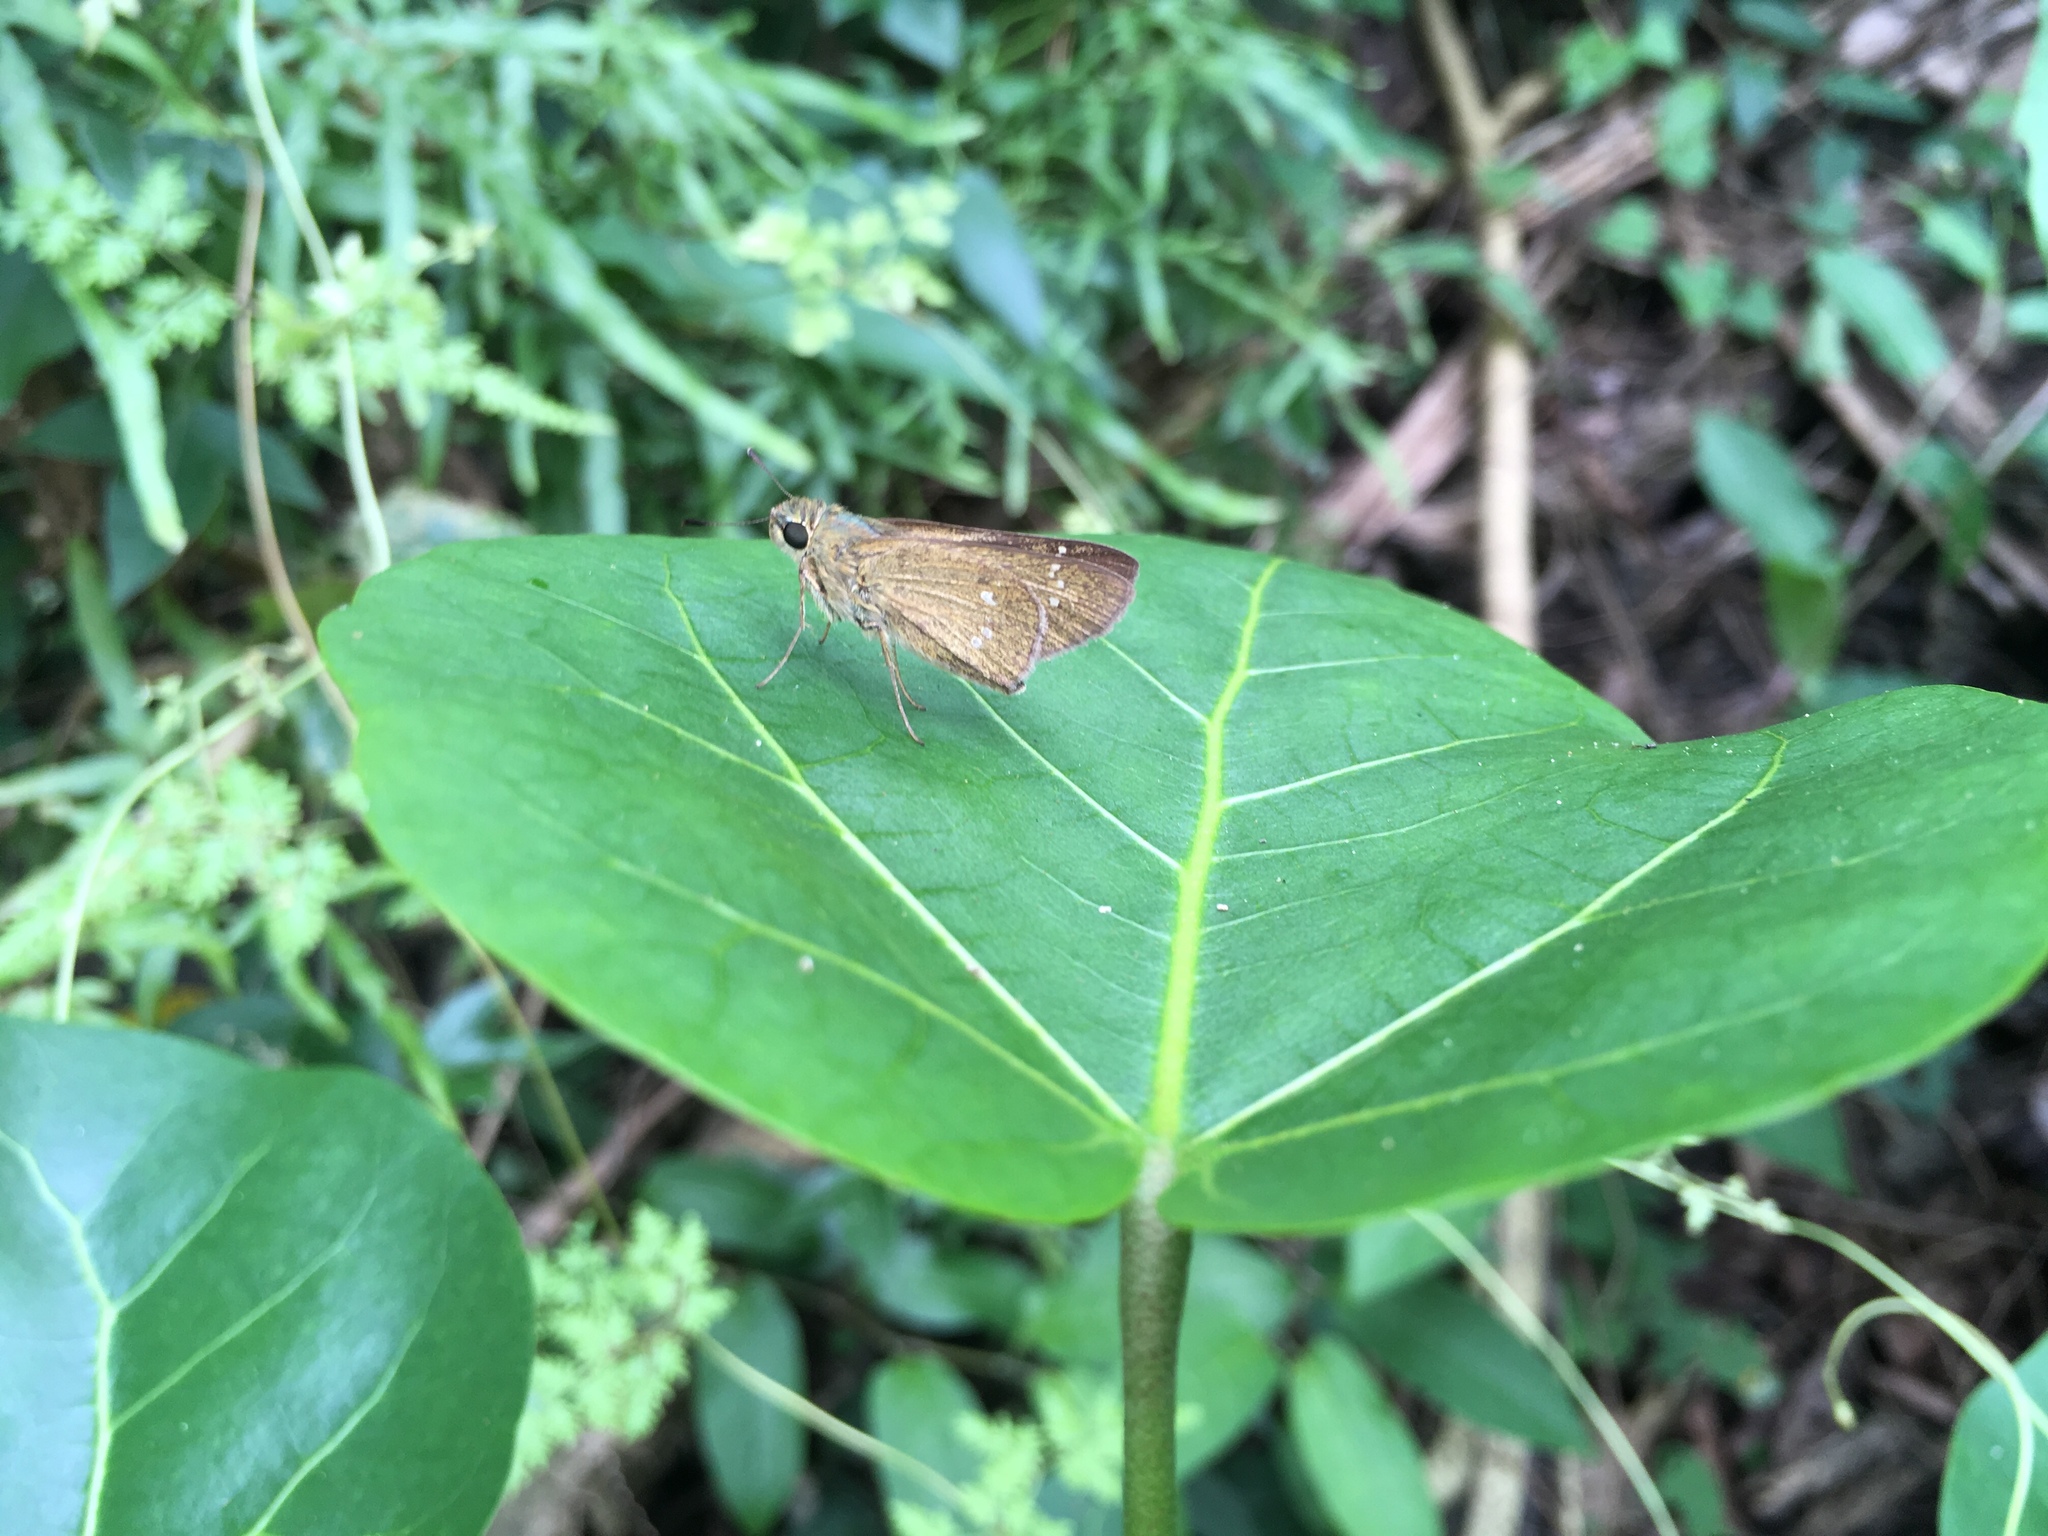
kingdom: Animalia
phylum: Arthropoda
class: Insecta
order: Lepidoptera
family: Hesperiidae
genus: Borbo
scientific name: Borbo cinnara
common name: Formosan swift
